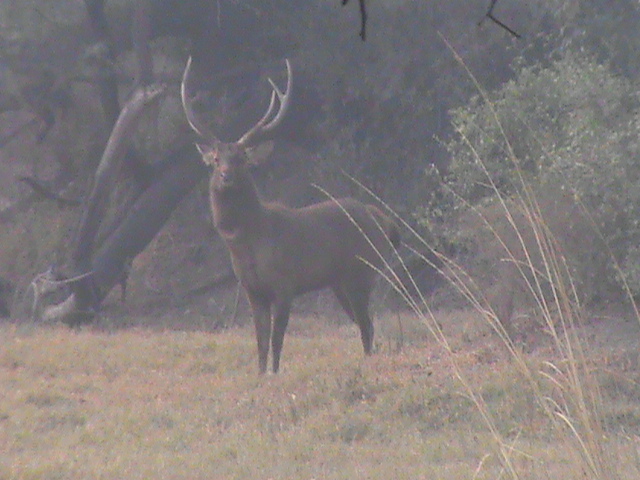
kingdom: Animalia
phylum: Chordata
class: Mammalia
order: Artiodactyla
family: Cervidae
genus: Rusa
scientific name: Rusa unicolor
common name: Sambar
